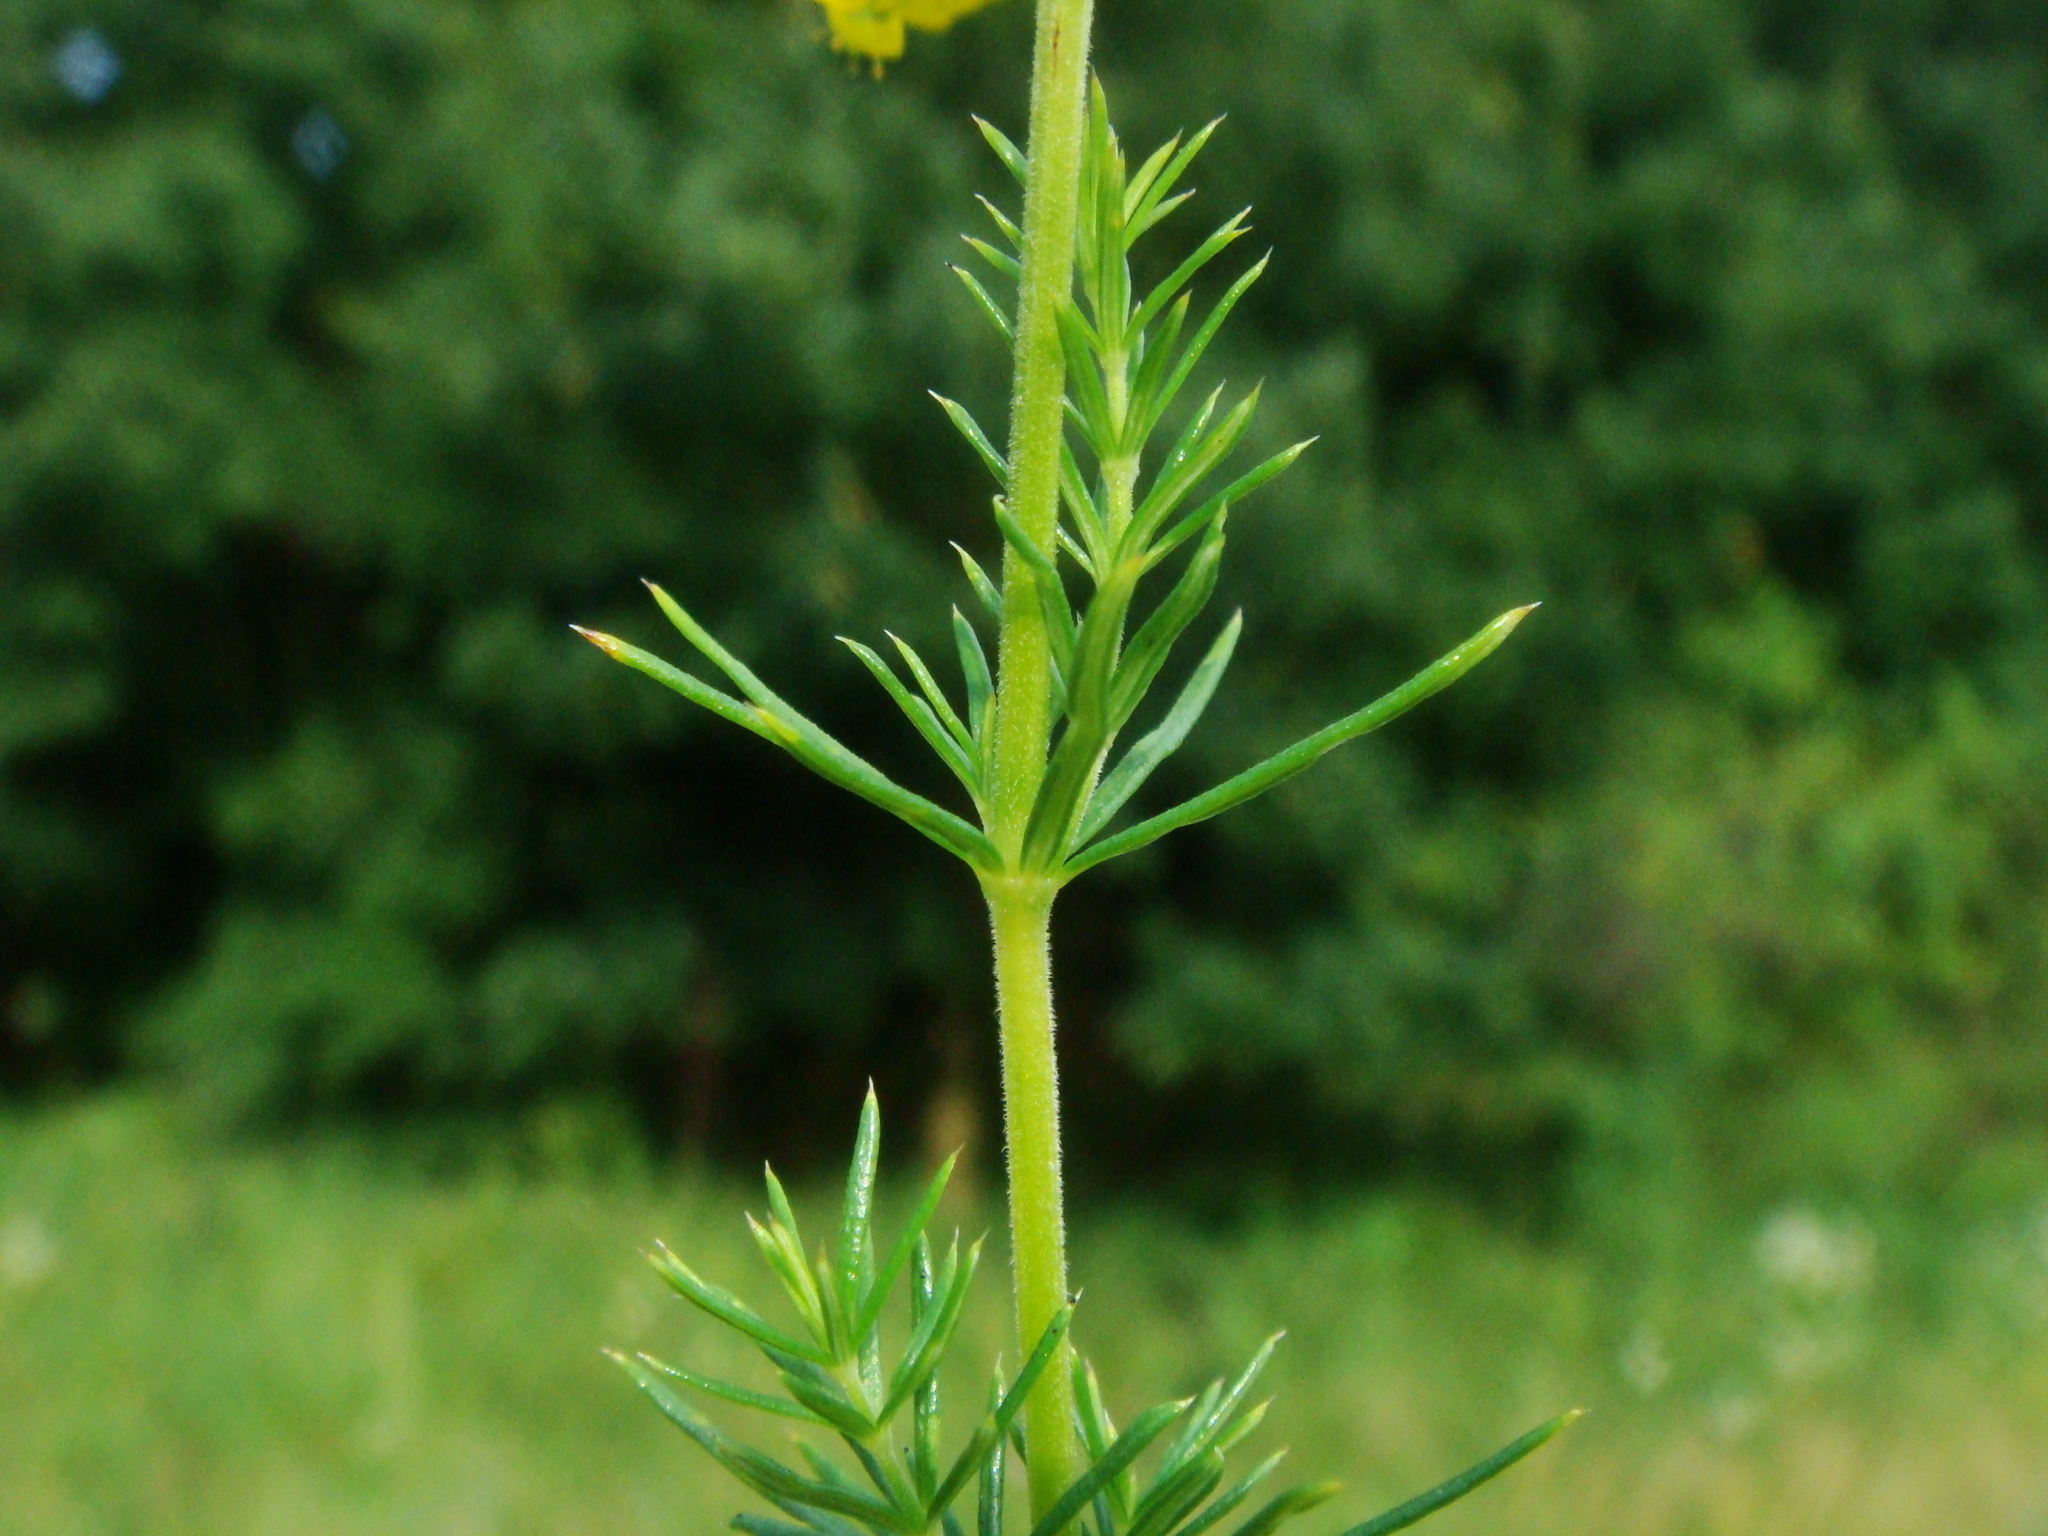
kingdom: Plantae
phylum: Tracheophyta
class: Magnoliopsida
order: Gentianales
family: Rubiaceae
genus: Galium
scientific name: Galium verum
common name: Lady's bedstraw
